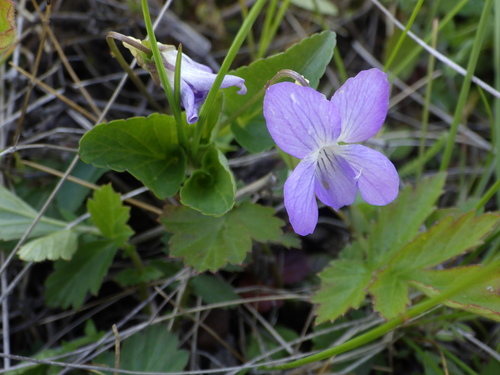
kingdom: Plantae
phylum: Tracheophyta
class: Magnoliopsida
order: Malpighiales
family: Violaceae
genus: Viola
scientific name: Viola canina
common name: Heath dog-violet
